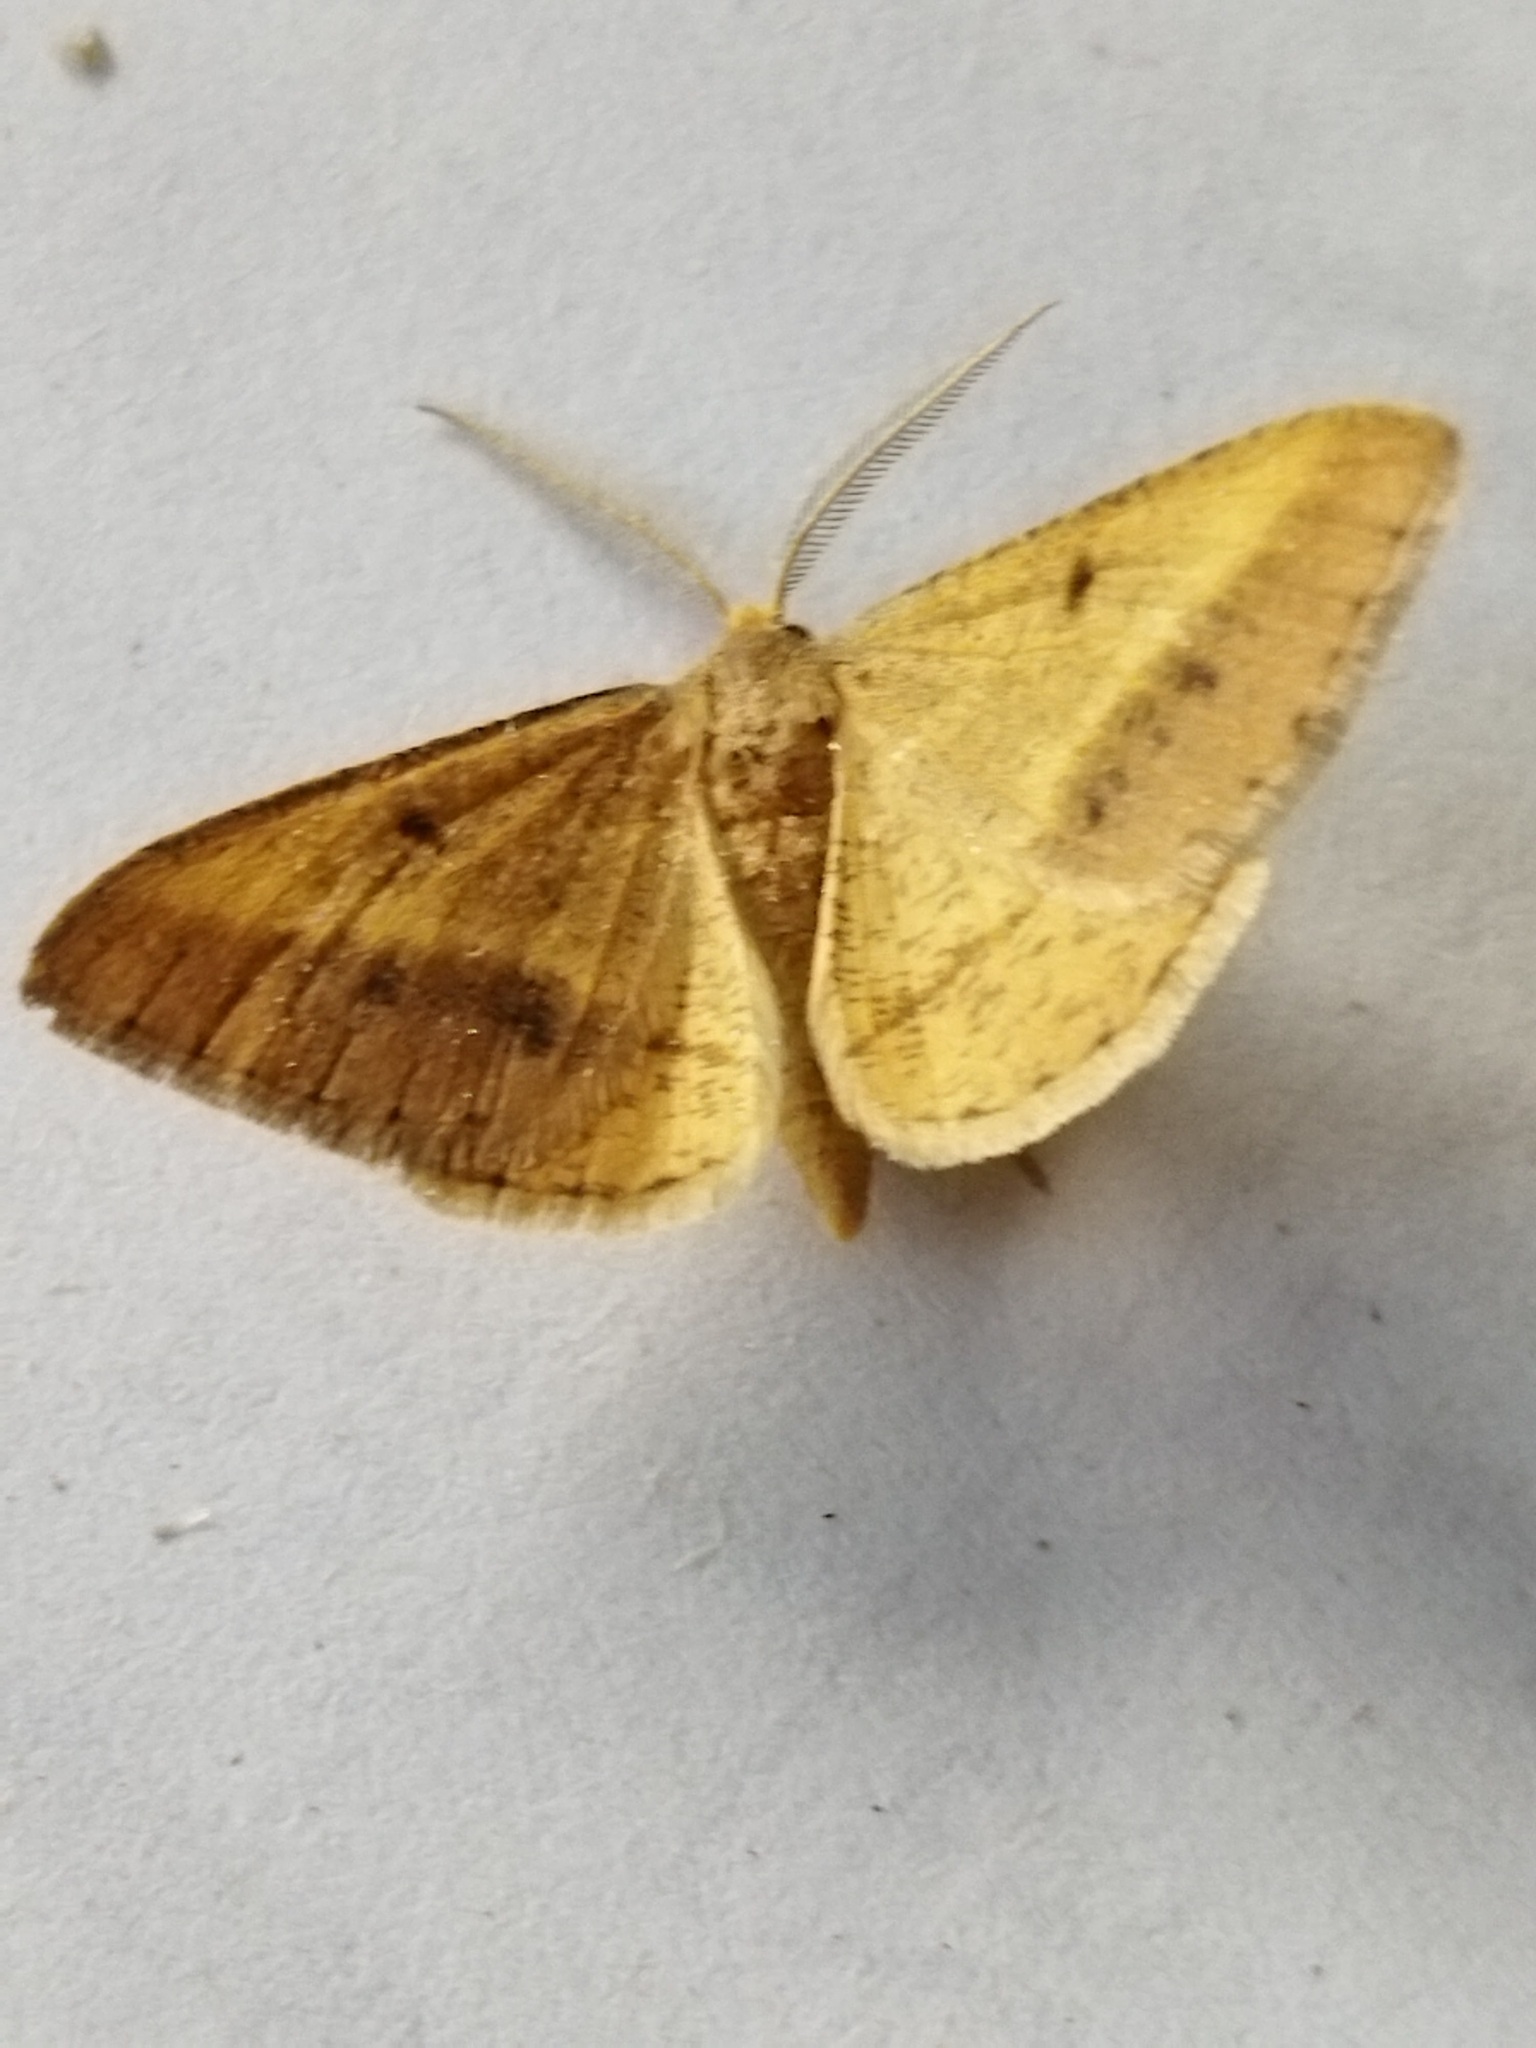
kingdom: Animalia
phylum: Arthropoda
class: Insecta
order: Lepidoptera
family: Geometridae
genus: Tephrina
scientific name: Tephrina arenacearia
